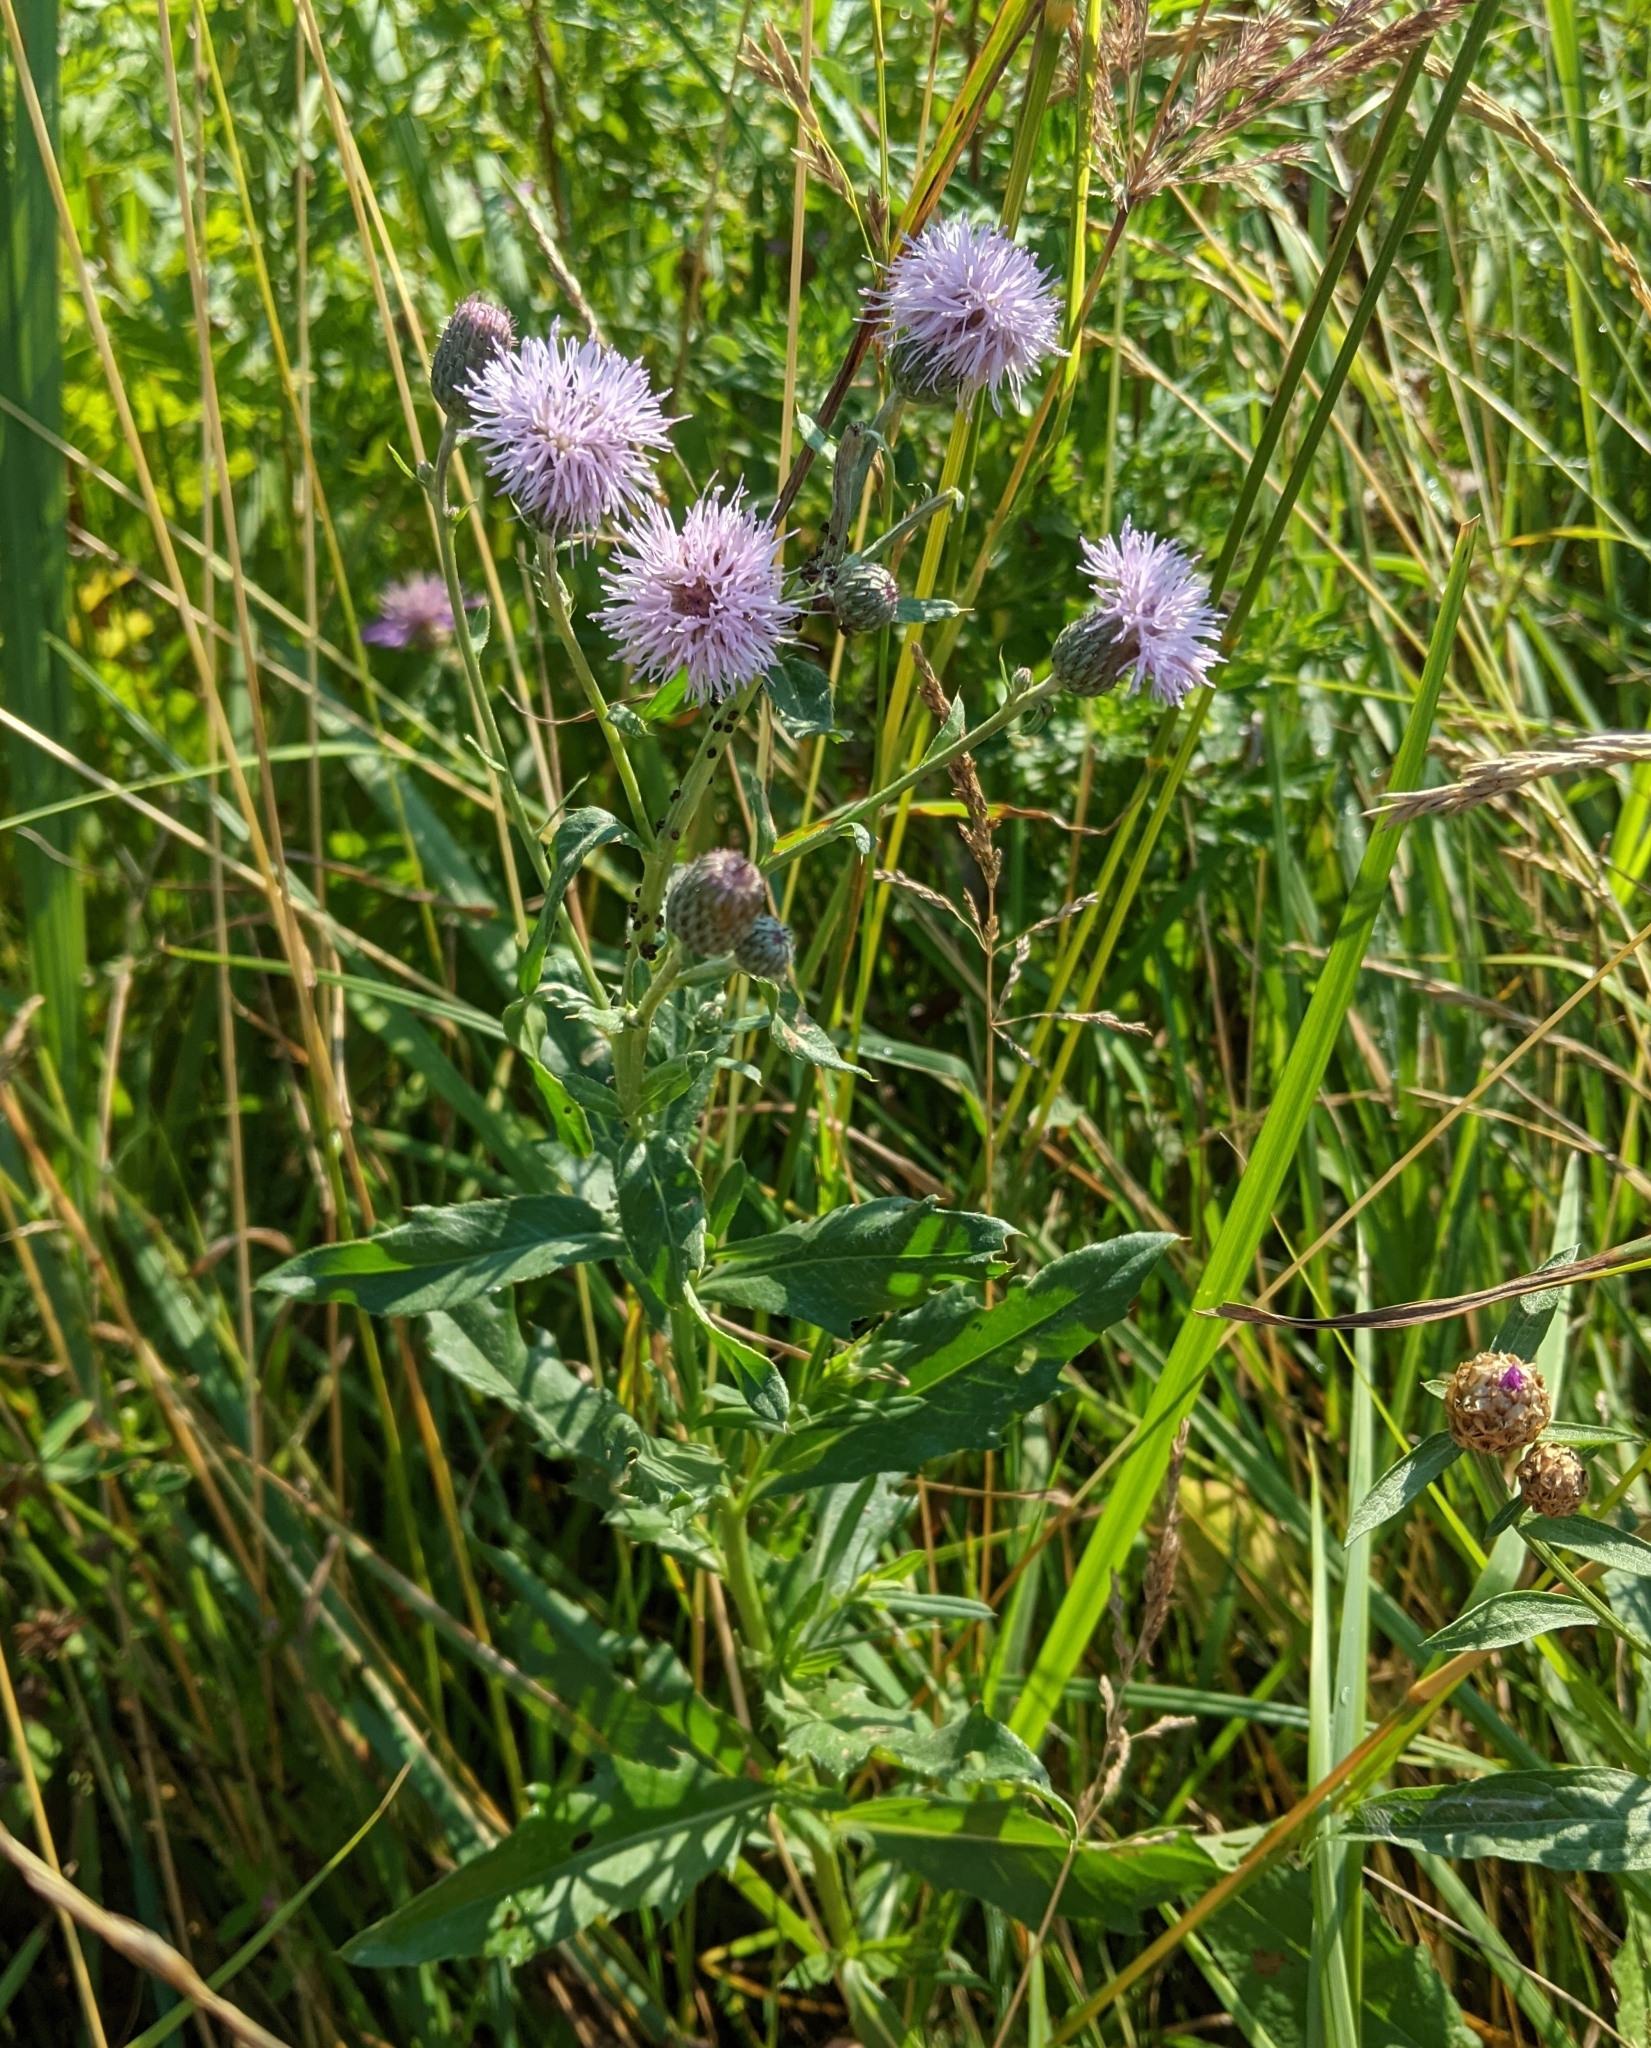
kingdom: Plantae
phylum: Tracheophyta
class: Magnoliopsida
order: Asterales
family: Asteraceae
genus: Cirsium
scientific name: Cirsium arvense
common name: Creeping thistle
